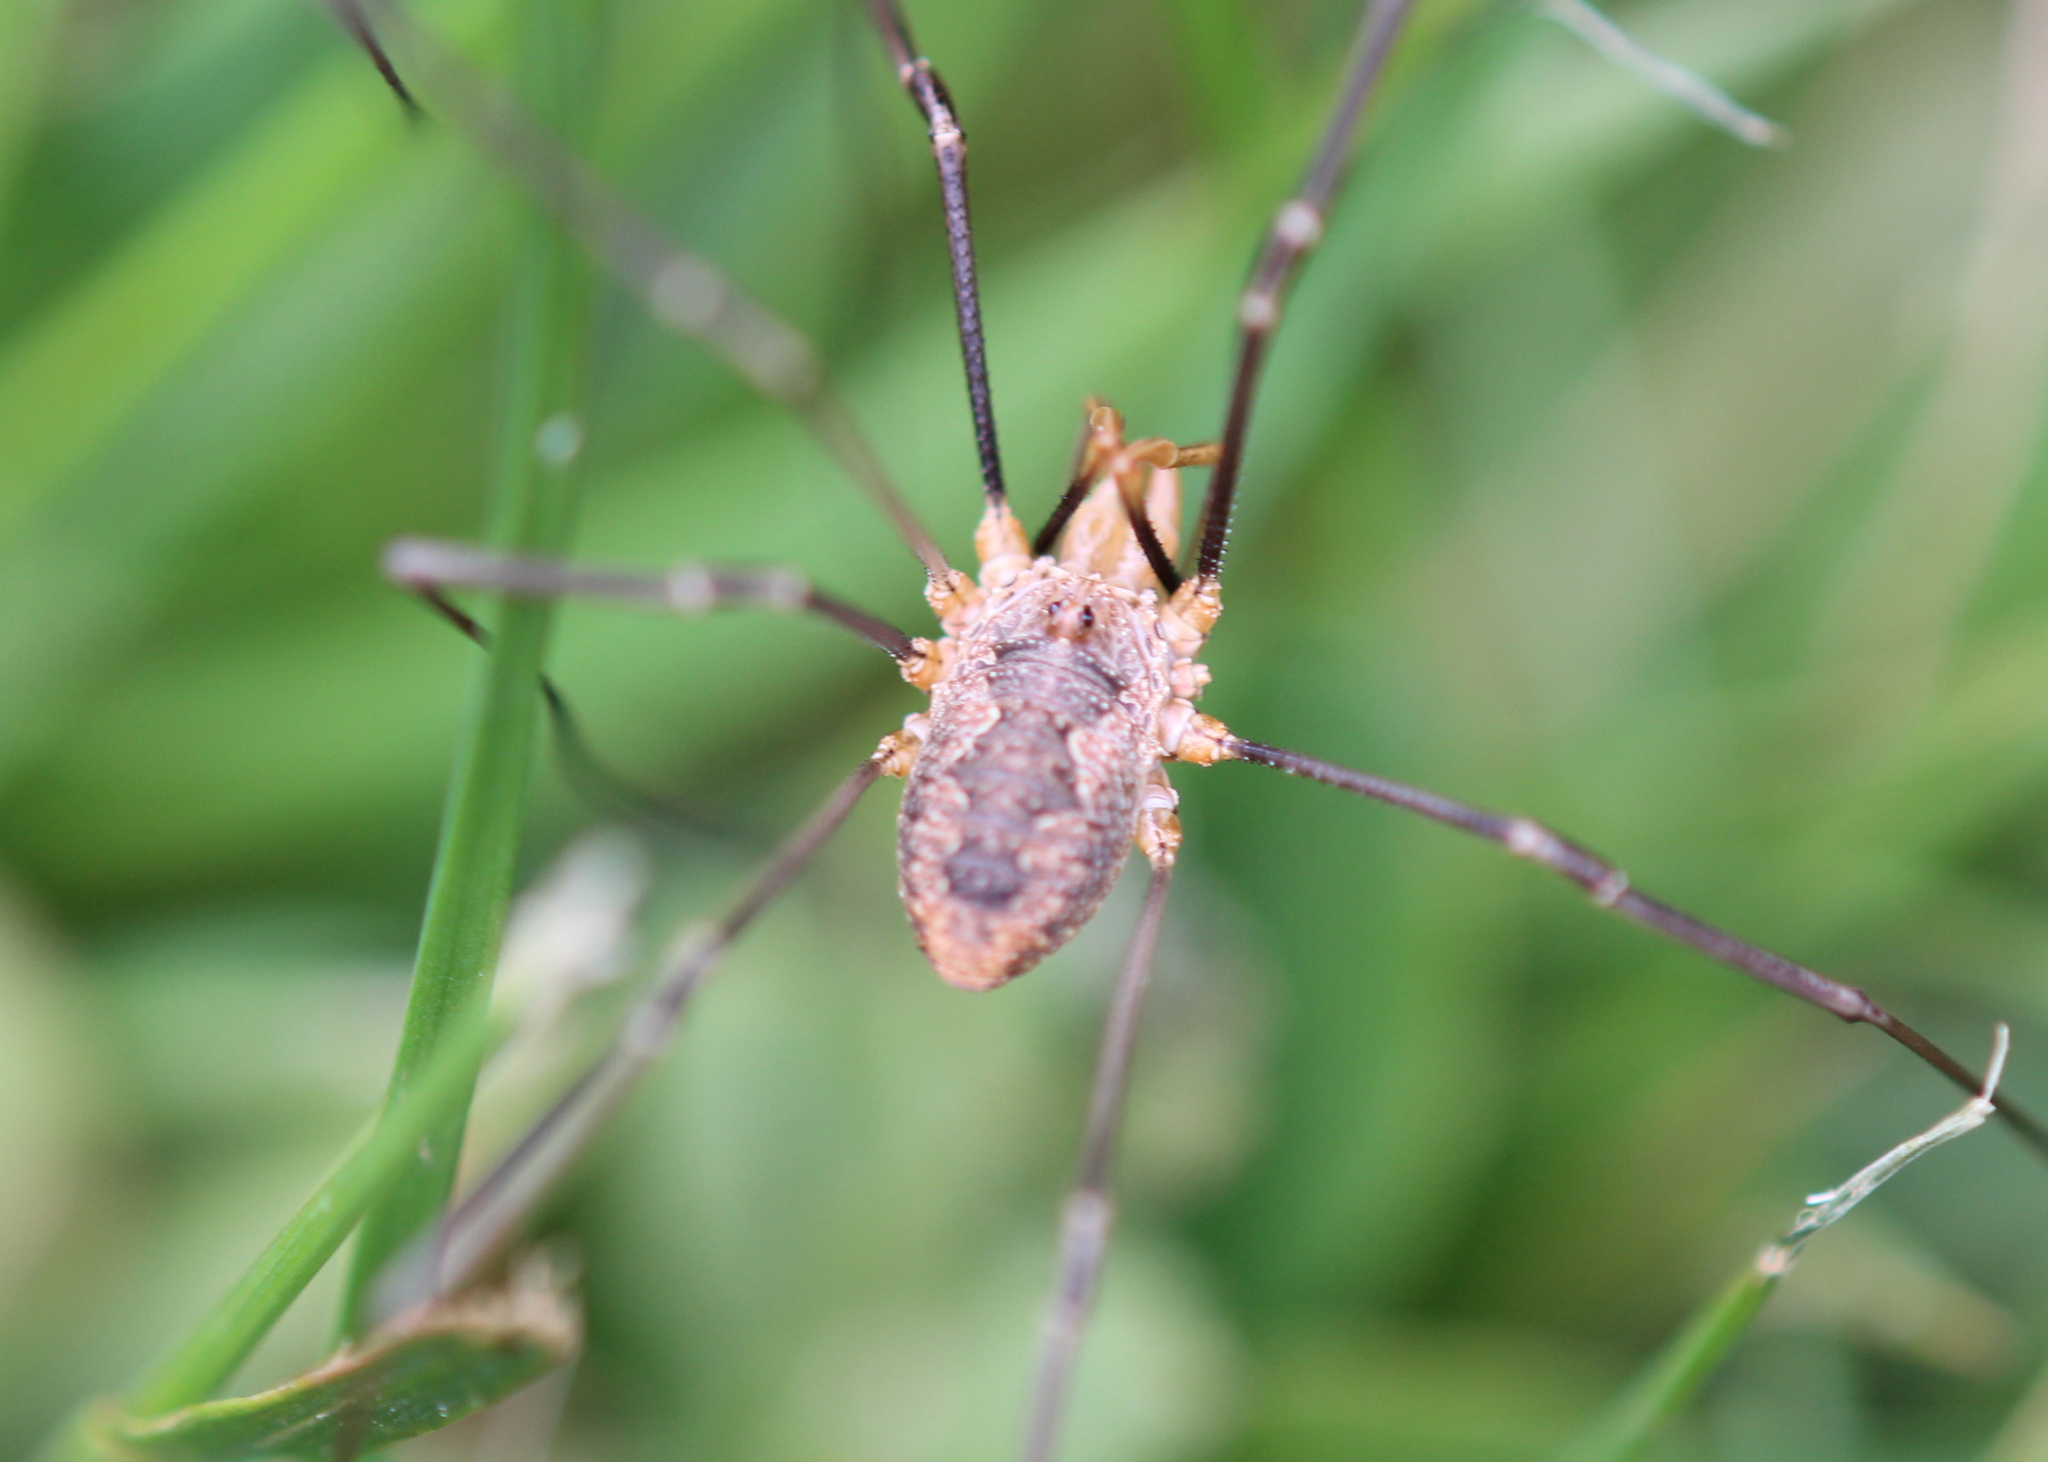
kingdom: Animalia
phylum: Arthropoda
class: Arachnida
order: Opiliones
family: Phalangiidae
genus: Phalangium
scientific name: Phalangium opilio
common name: Daddy longleg
